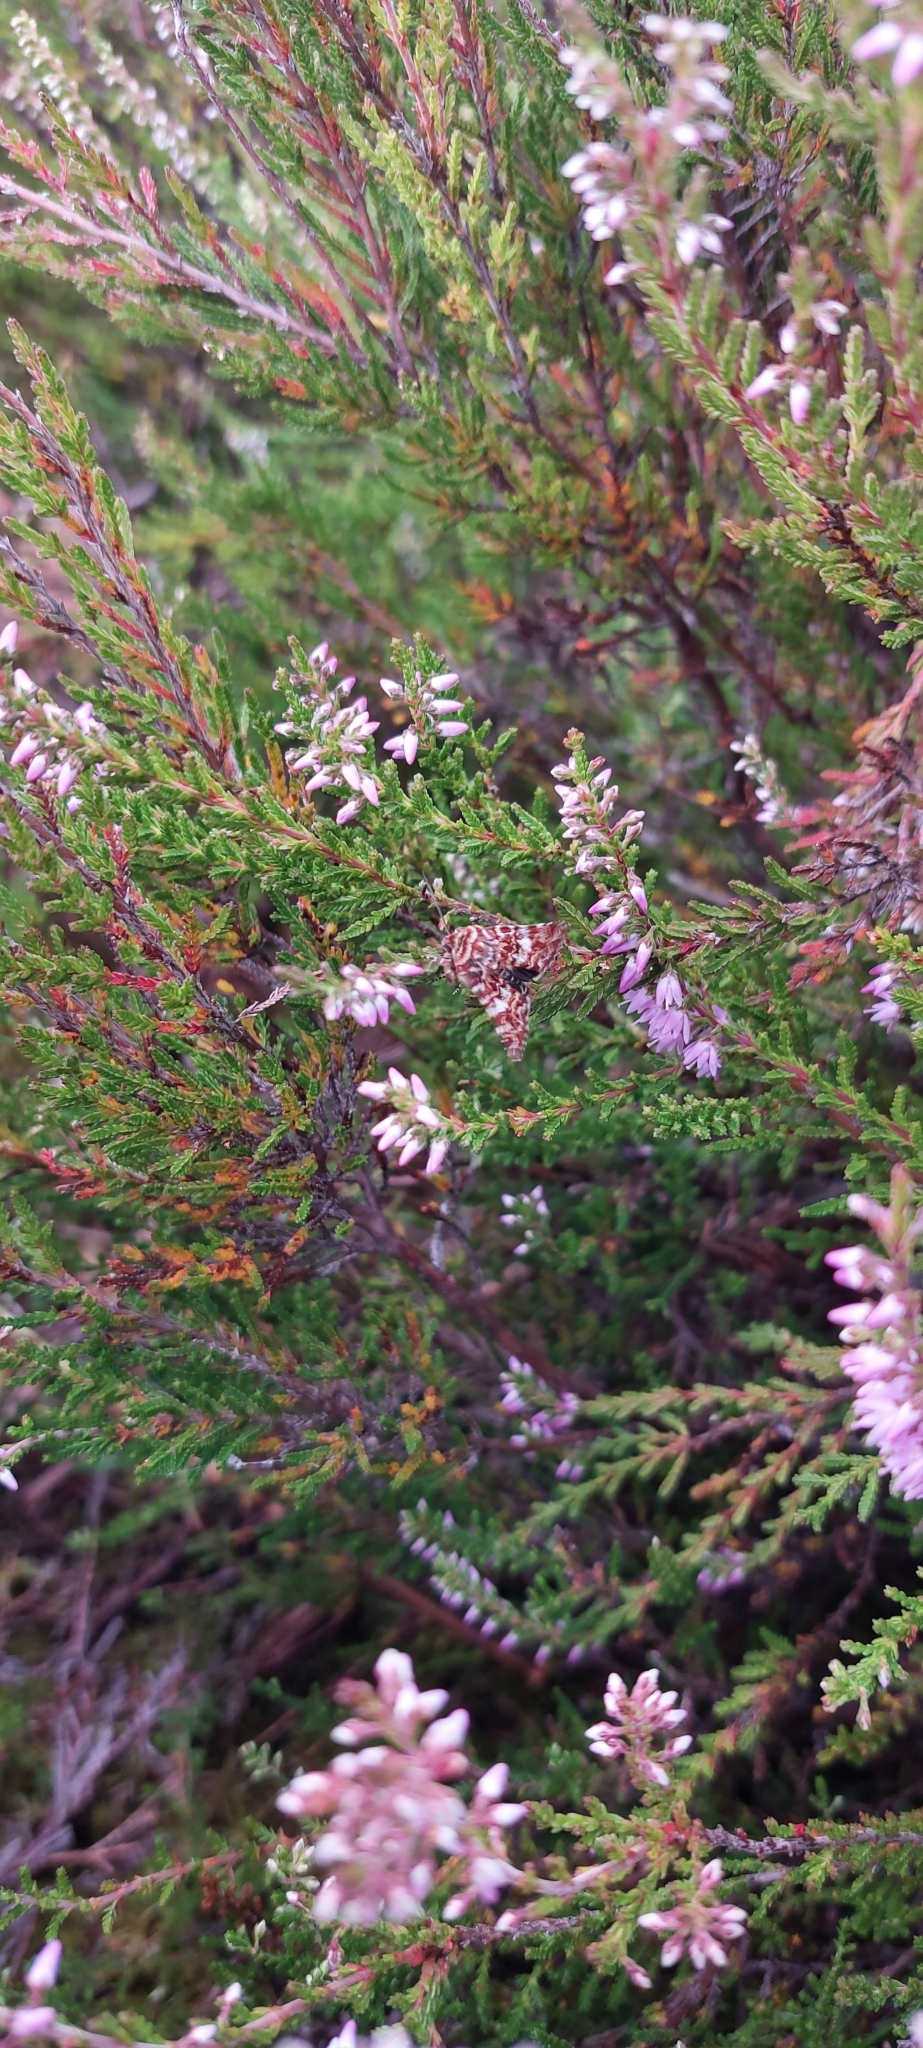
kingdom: Animalia
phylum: Arthropoda
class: Insecta
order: Lepidoptera
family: Noctuidae
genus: Anarta
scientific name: Anarta myrtilli
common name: Beautiful yellow underwing
